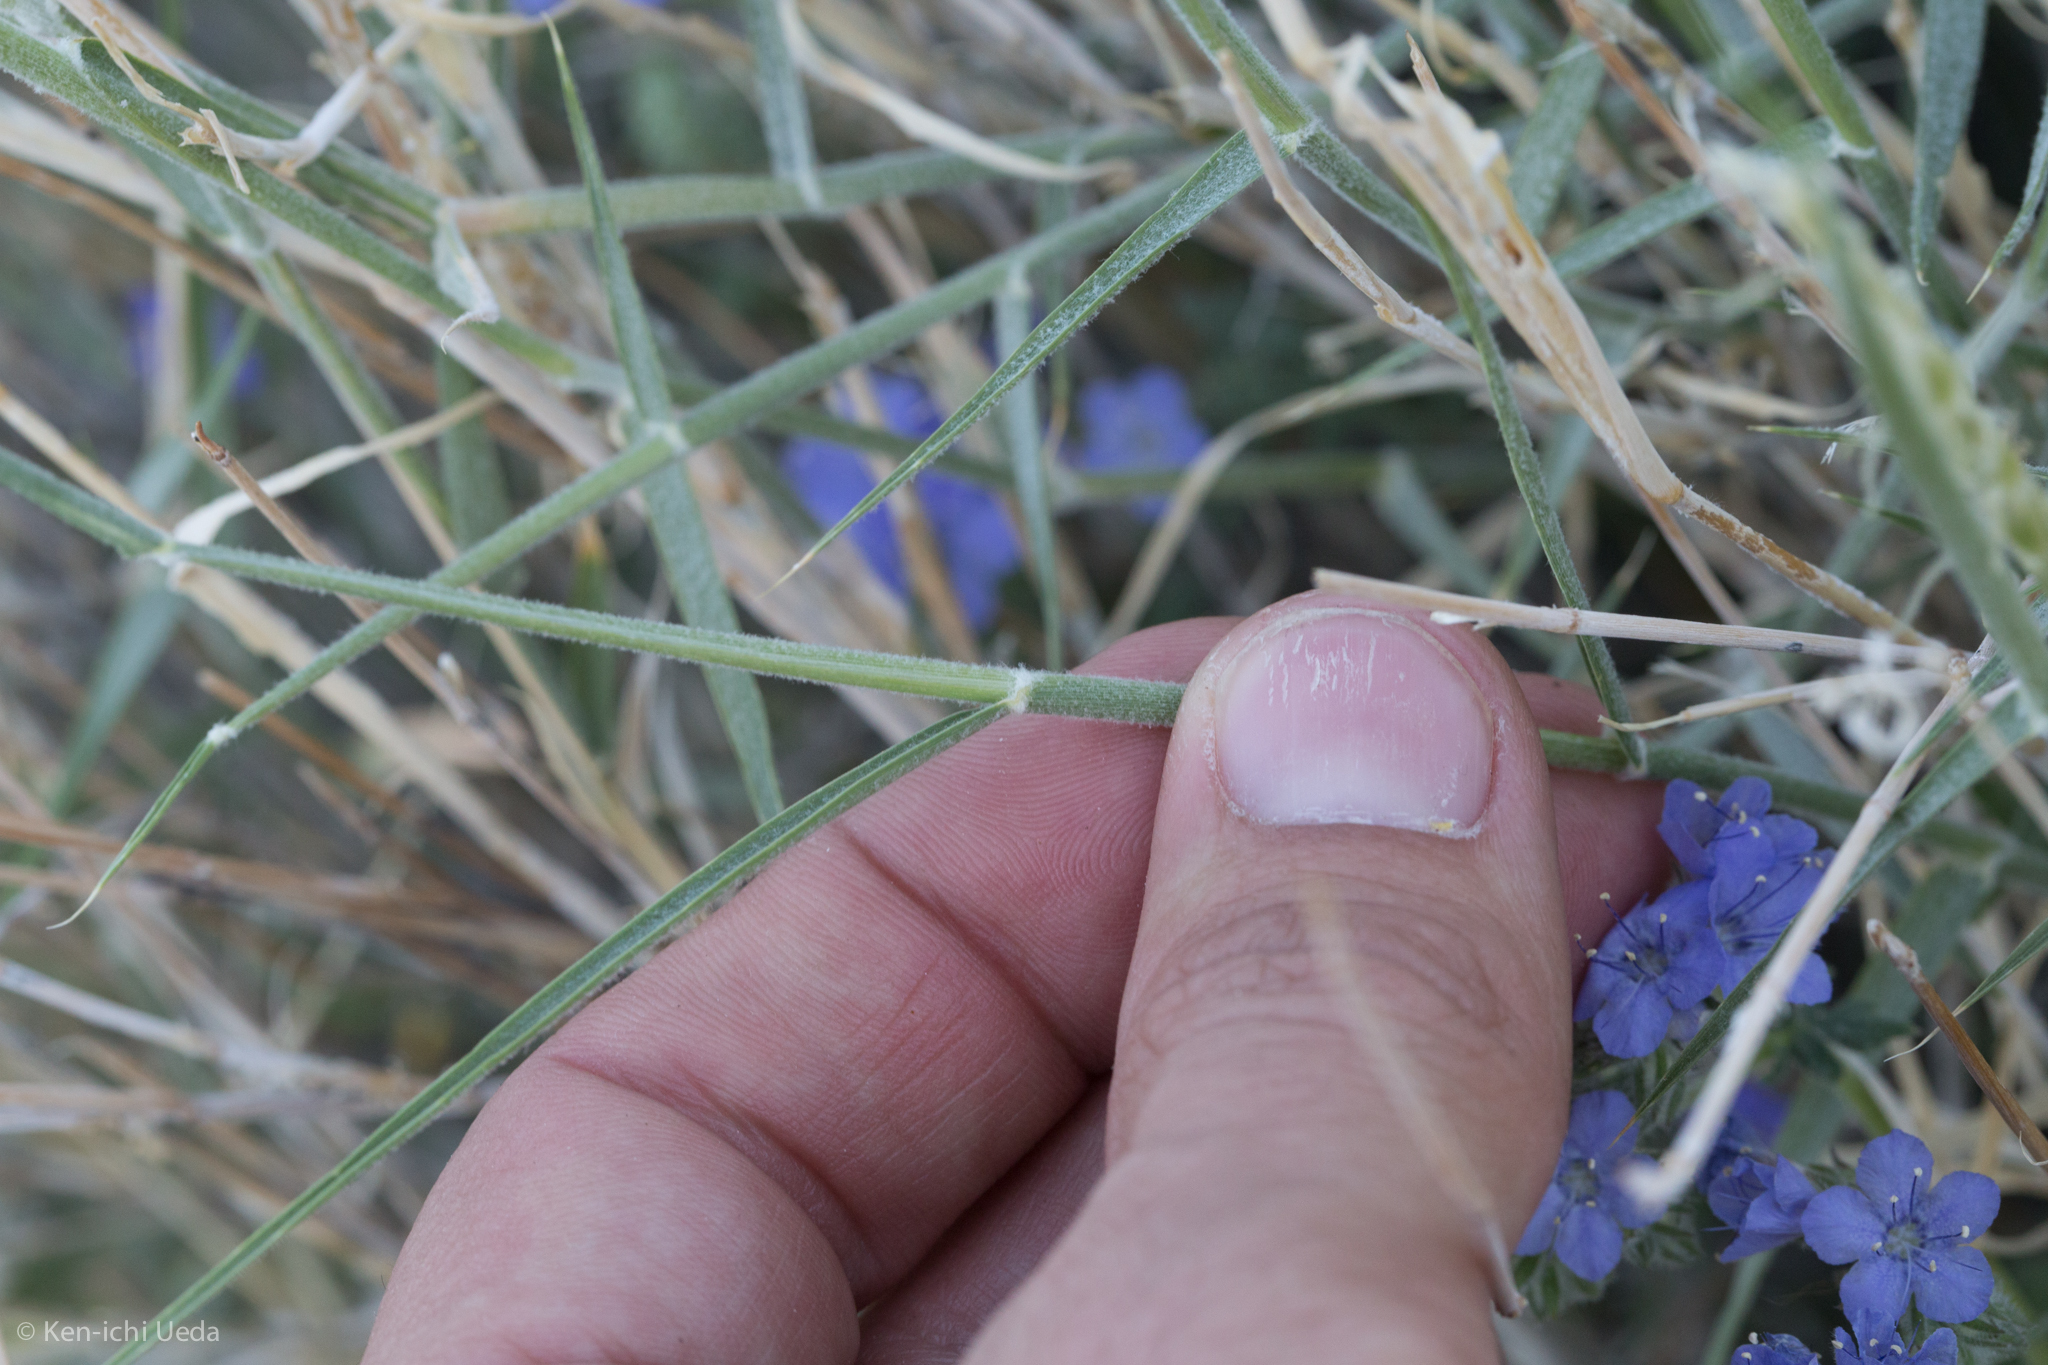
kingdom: Plantae
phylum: Tracheophyta
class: Liliopsida
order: Poales
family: Poaceae
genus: Hilaria
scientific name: Hilaria rigida
